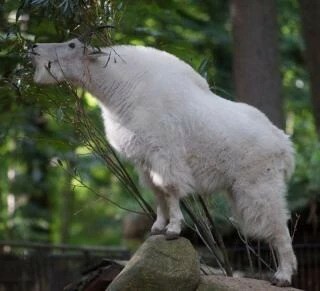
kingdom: Animalia
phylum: Chordata
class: Mammalia
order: Artiodactyla
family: Bovidae
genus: Oreamnos
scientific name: Oreamnos americanus
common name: Mountain goat
